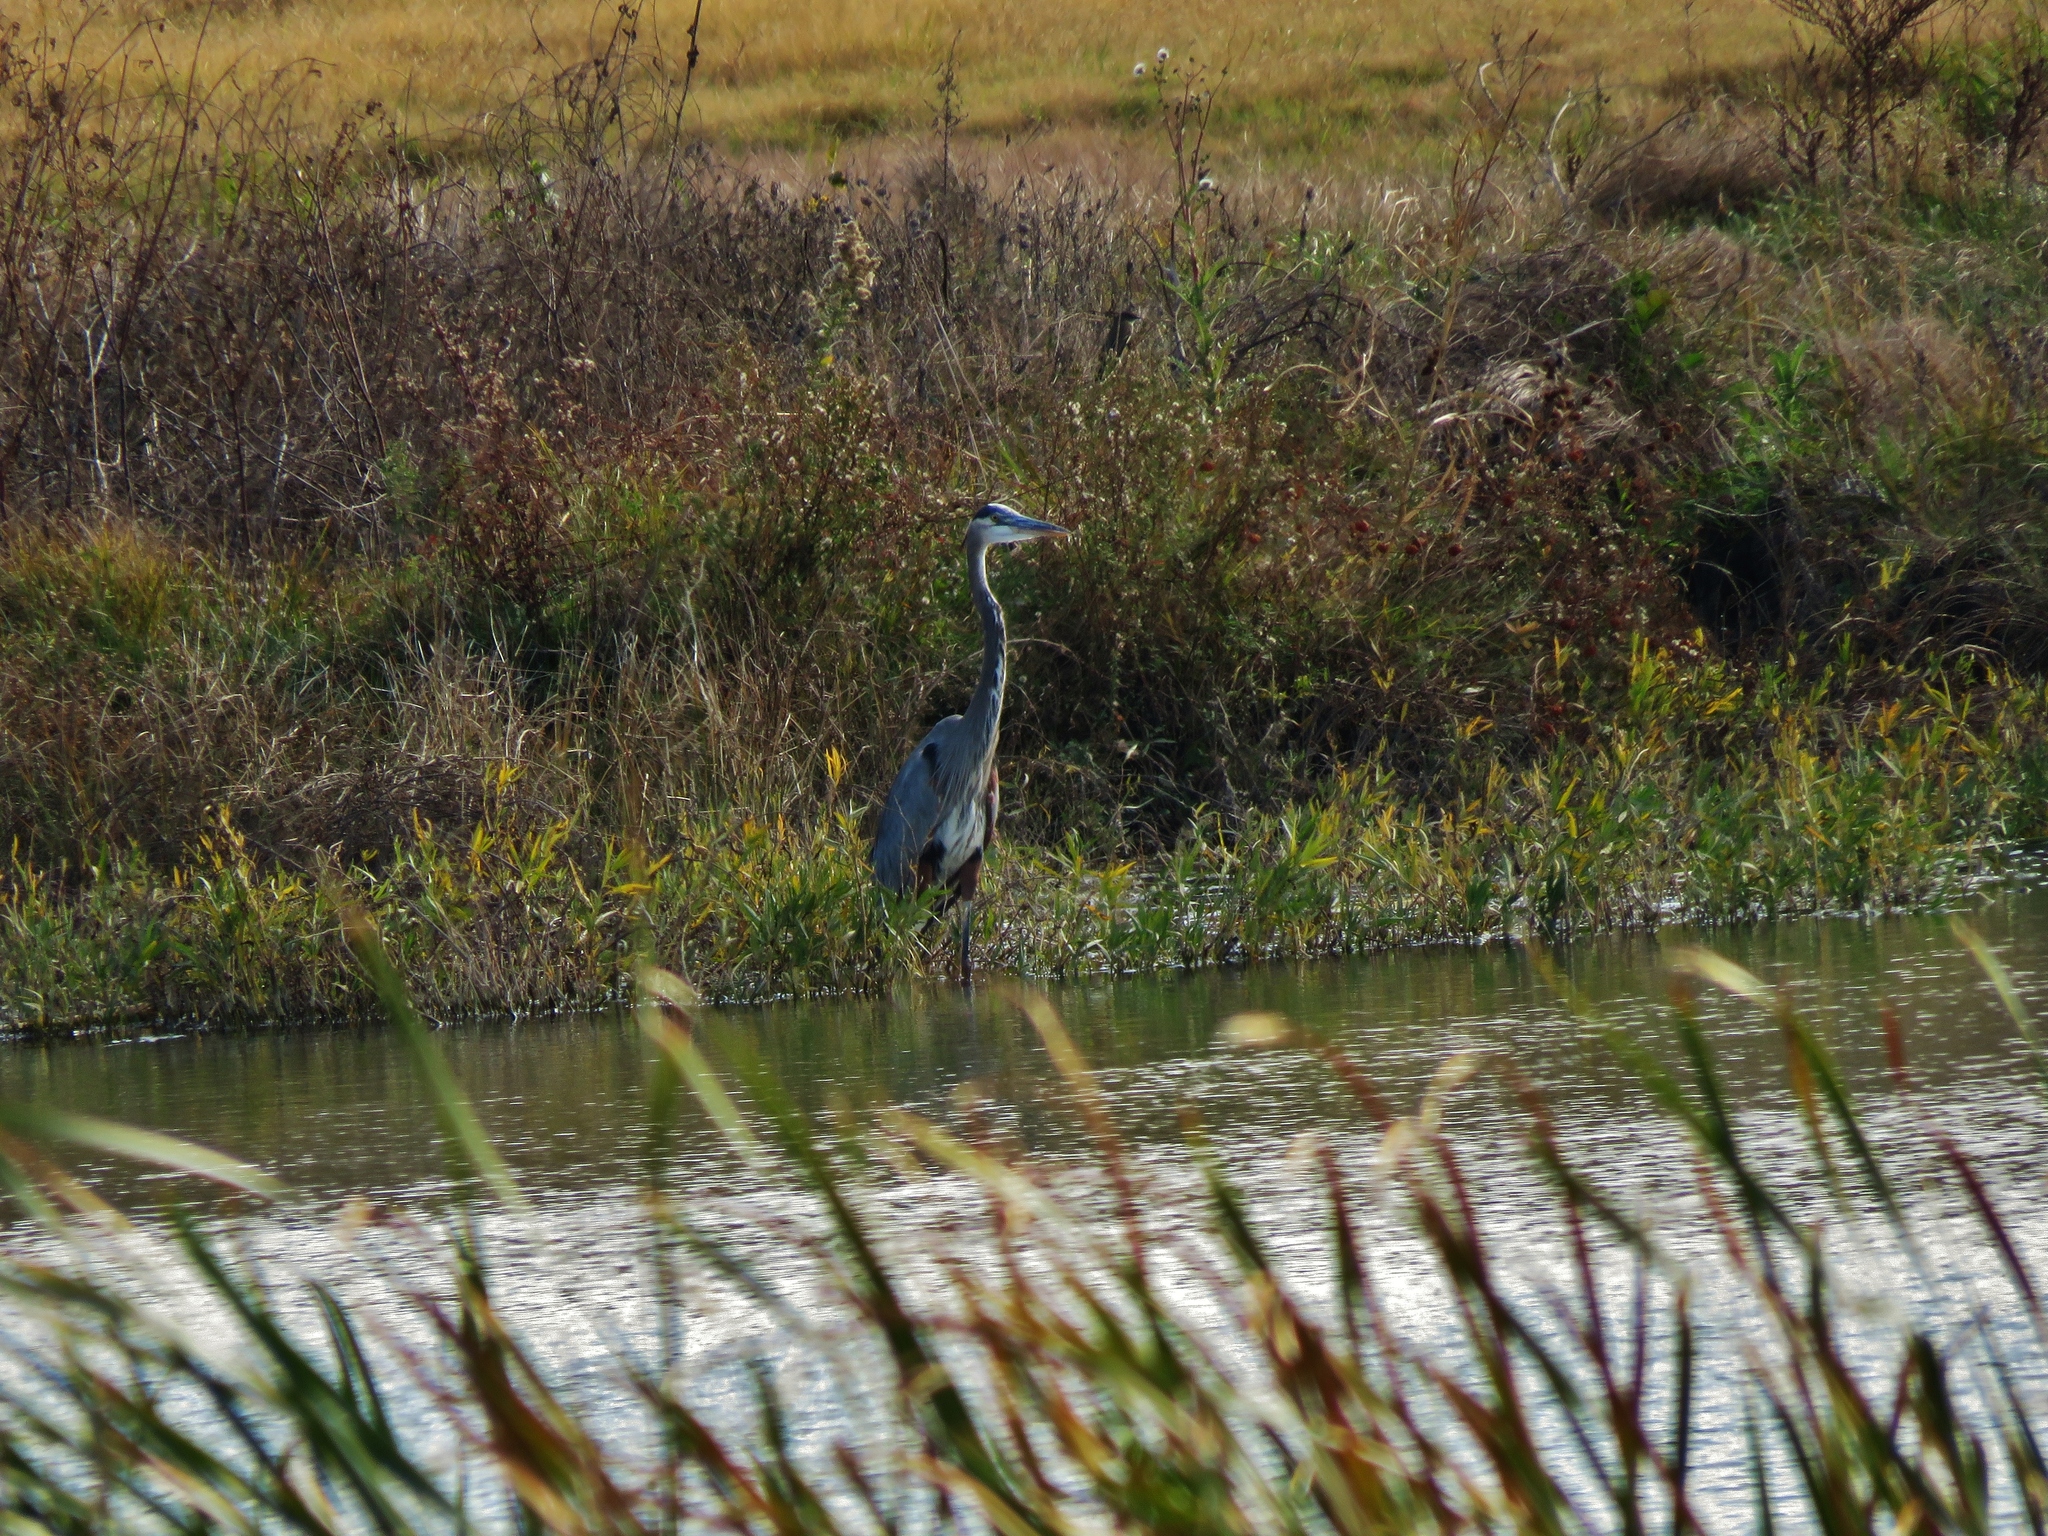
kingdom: Animalia
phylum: Chordata
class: Aves
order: Pelecaniformes
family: Ardeidae
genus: Ardea
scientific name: Ardea herodias
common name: Great blue heron
